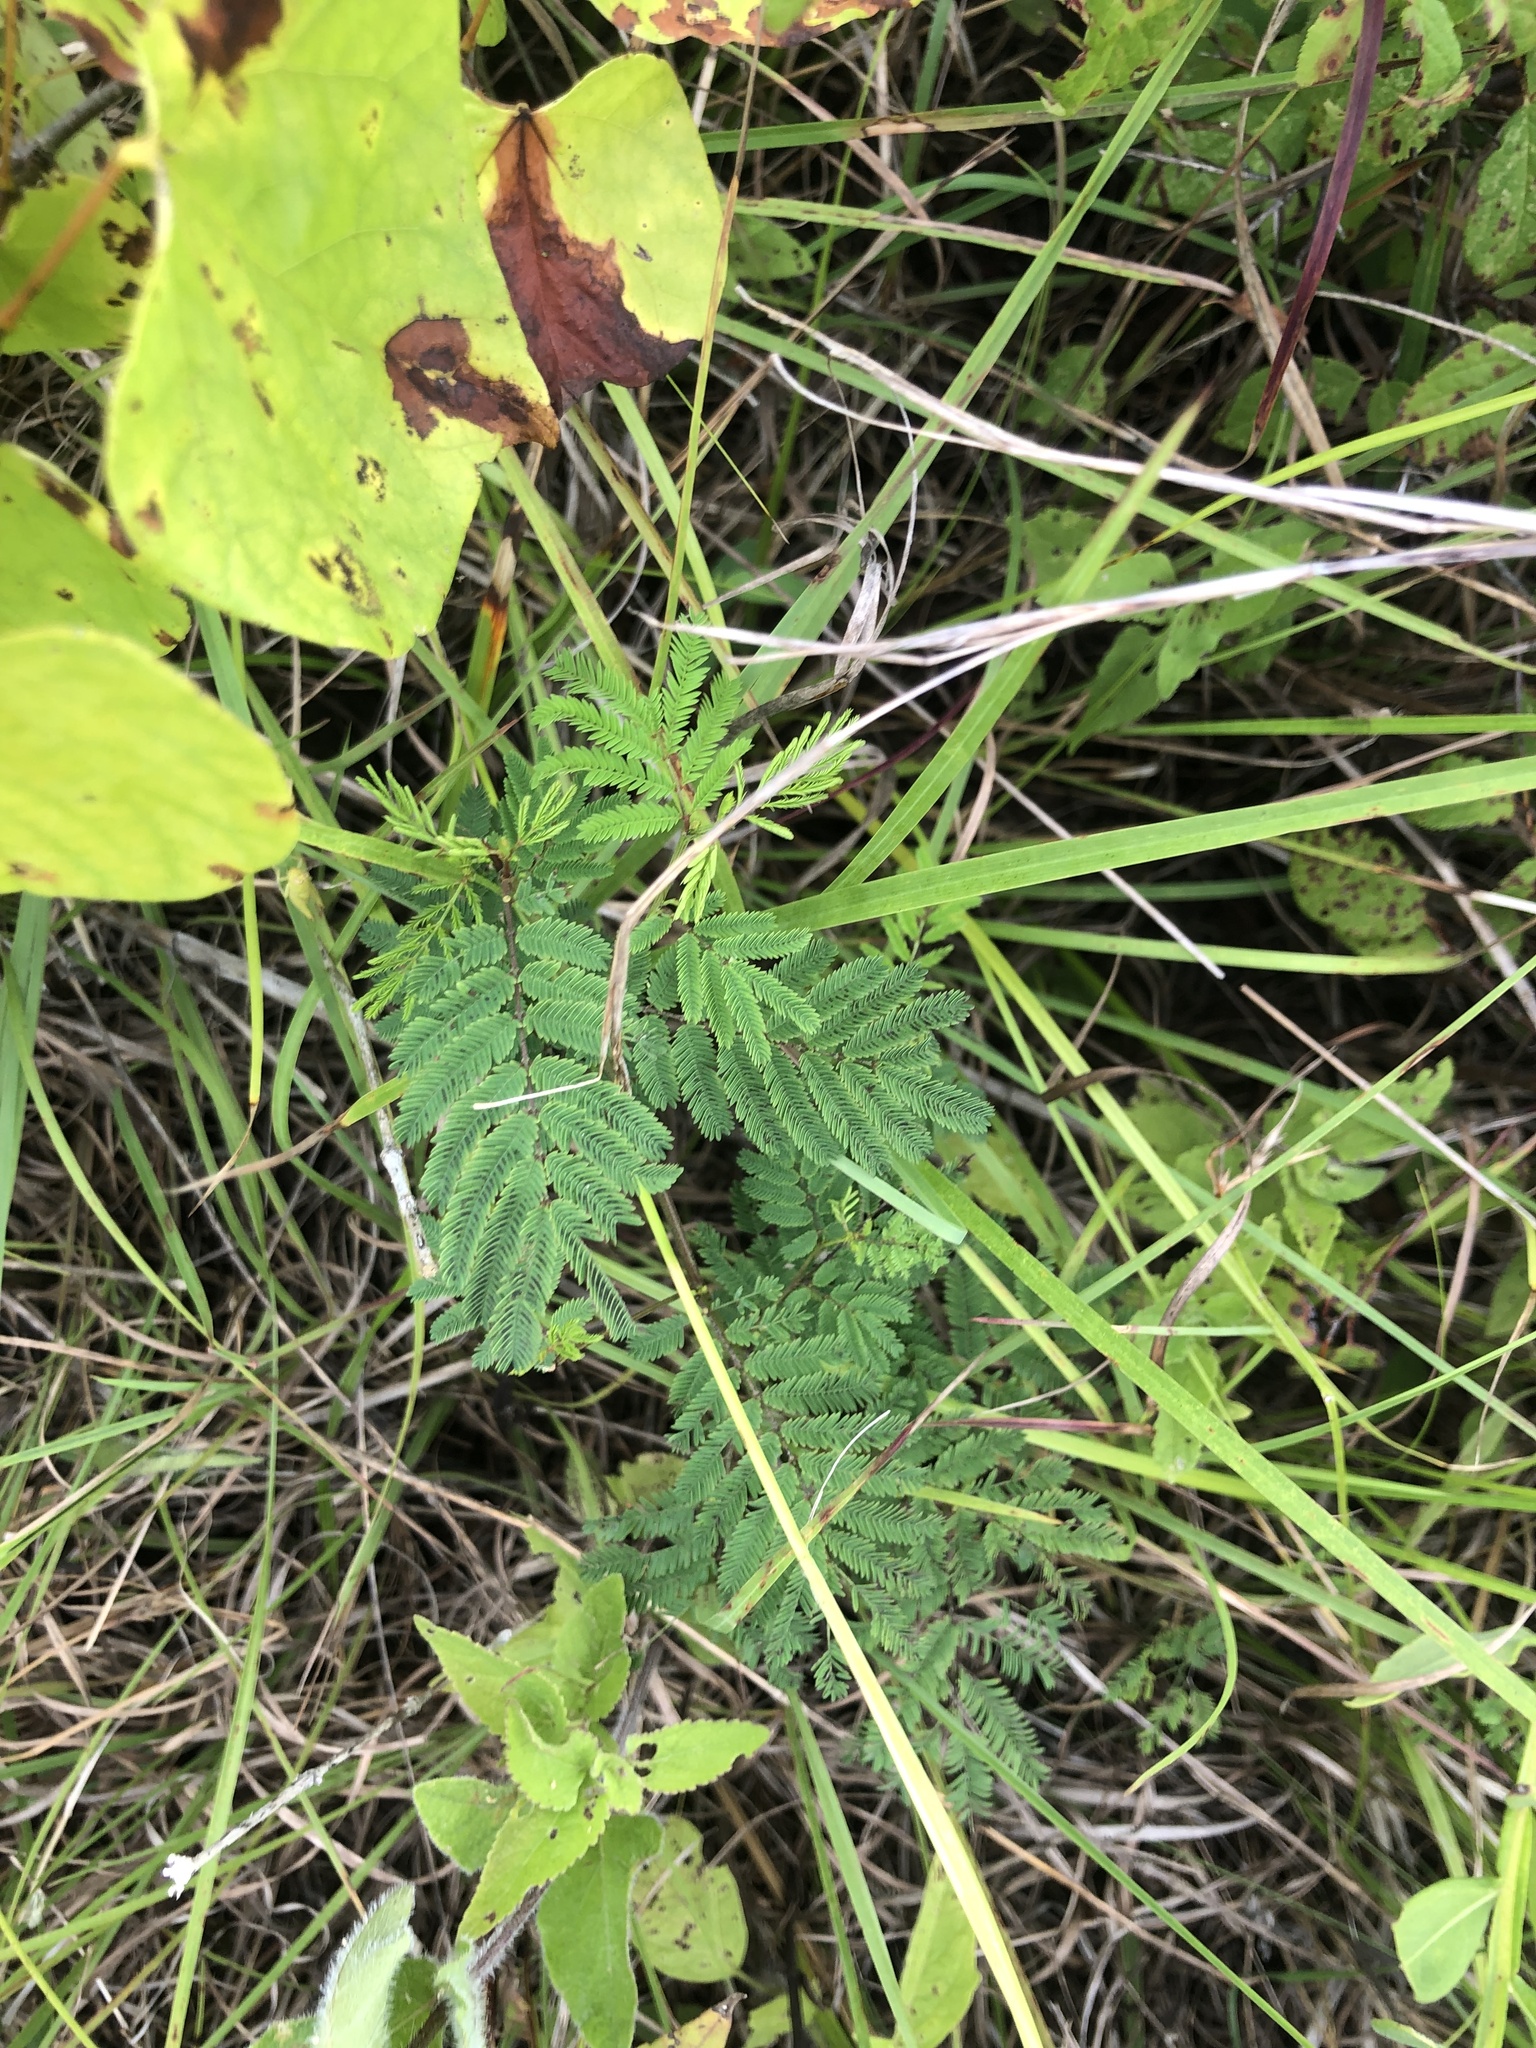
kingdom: Plantae
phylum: Tracheophyta
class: Magnoliopsida
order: Fabales
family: Fabaceae
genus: Desmanthus
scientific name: Desmanthus illinoensis
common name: Illinois bundle-flower
